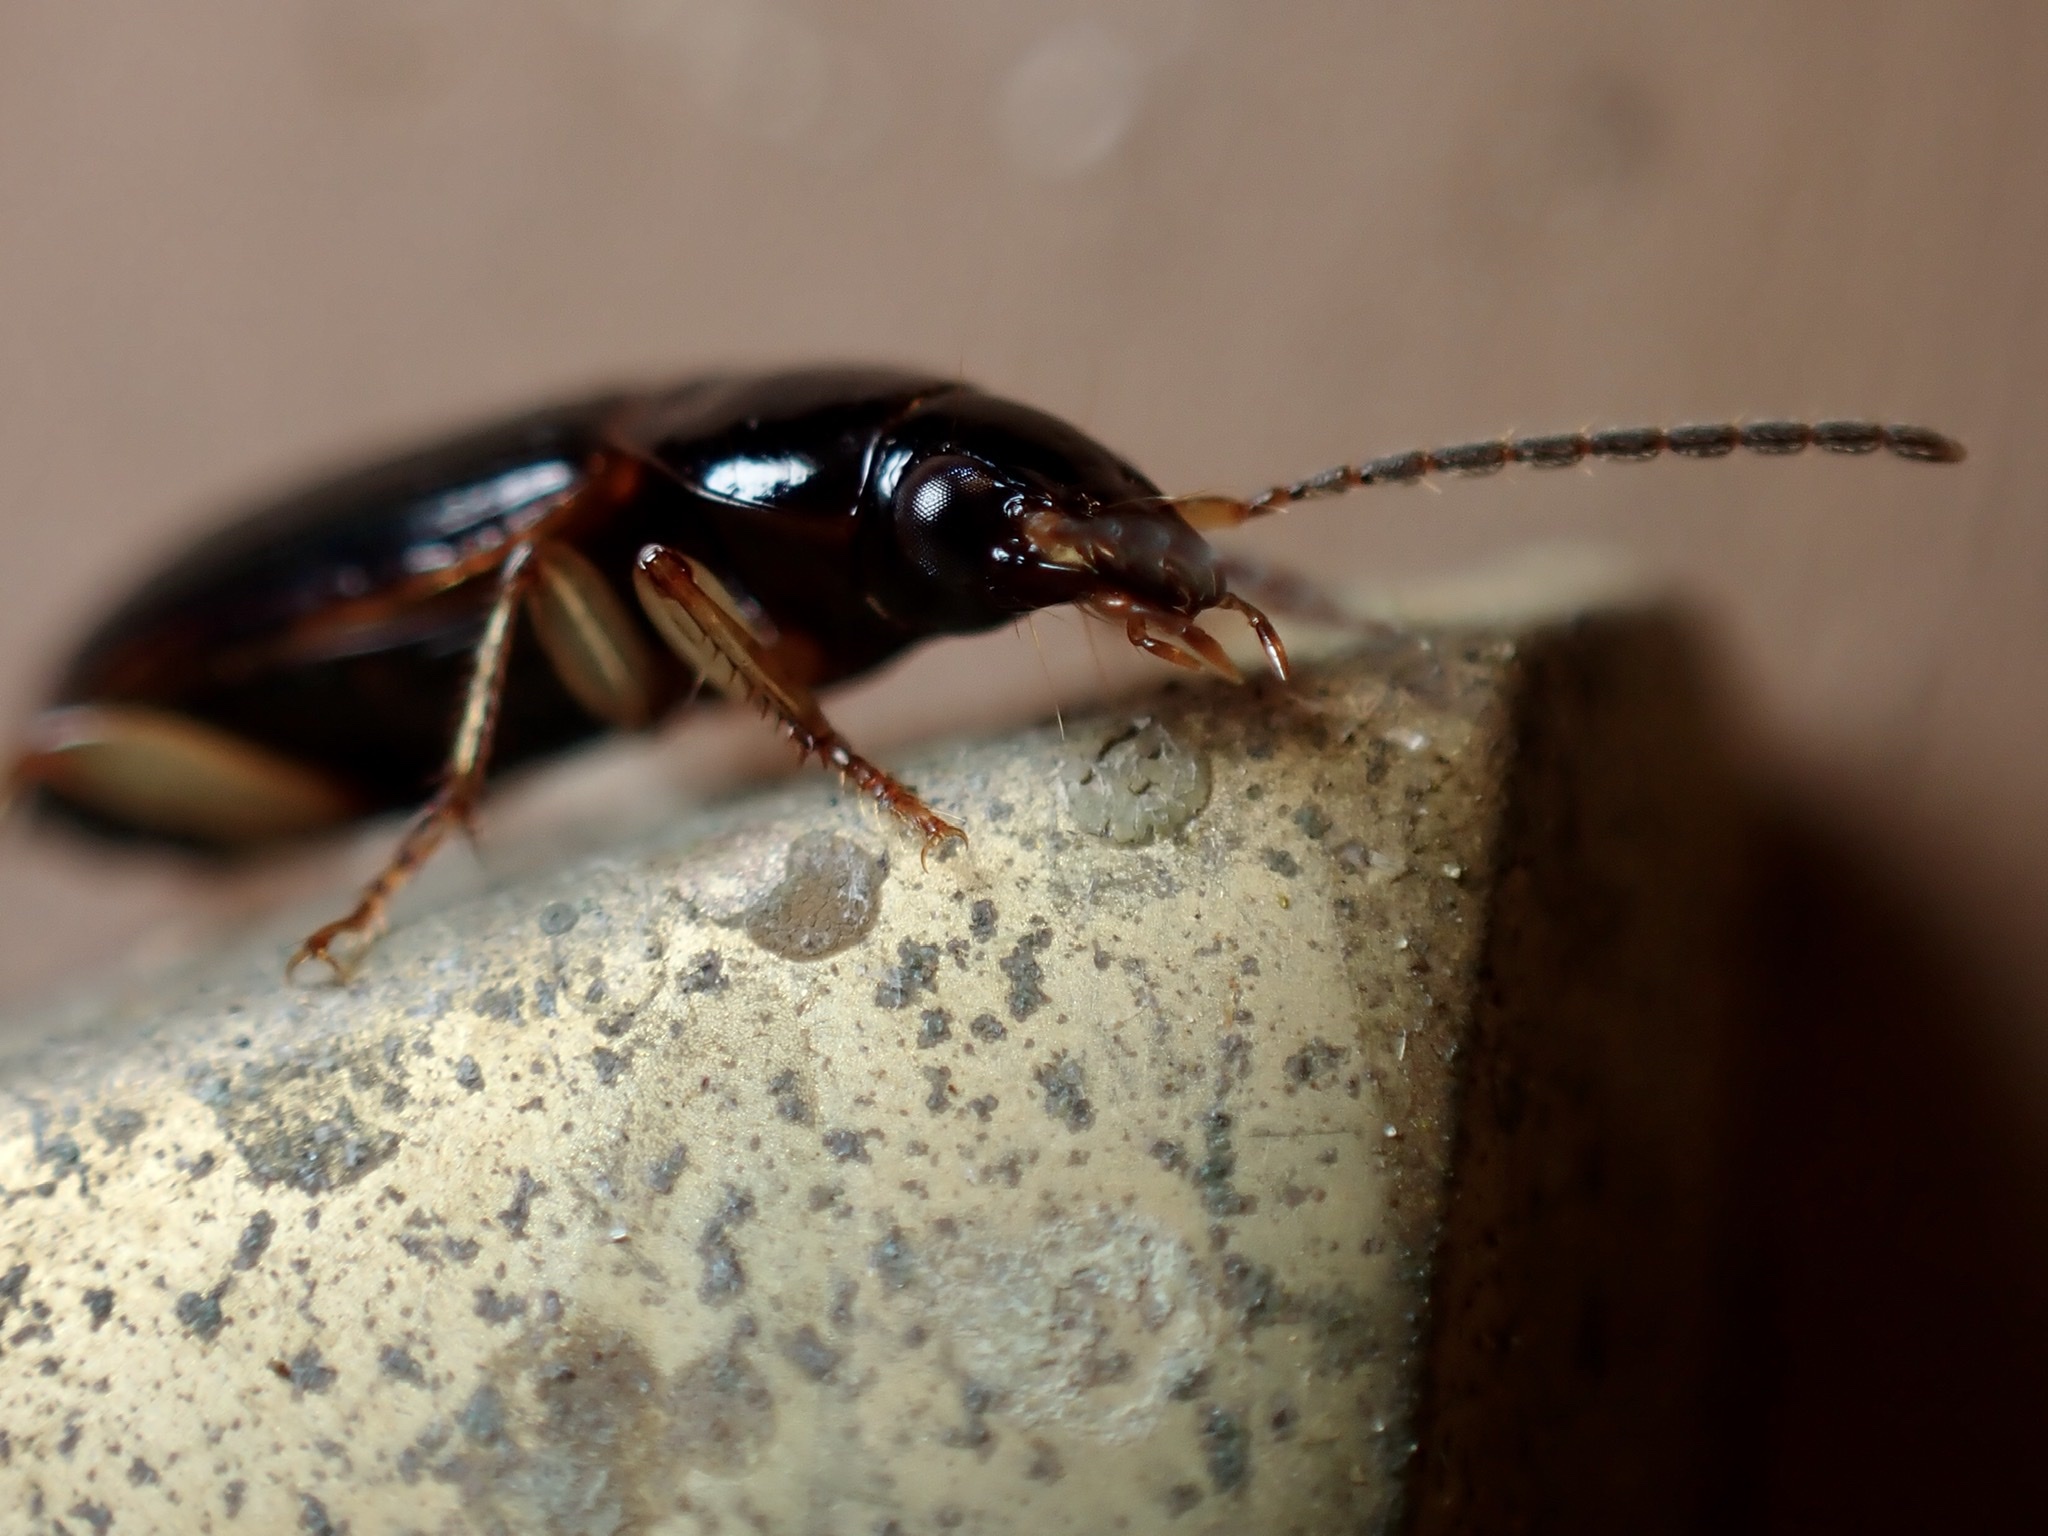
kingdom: Animalia
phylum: Arthropoda
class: Insecta
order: Coleoptera
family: Carabidae
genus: Stenolophus
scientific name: Stenolophus ochropezus
